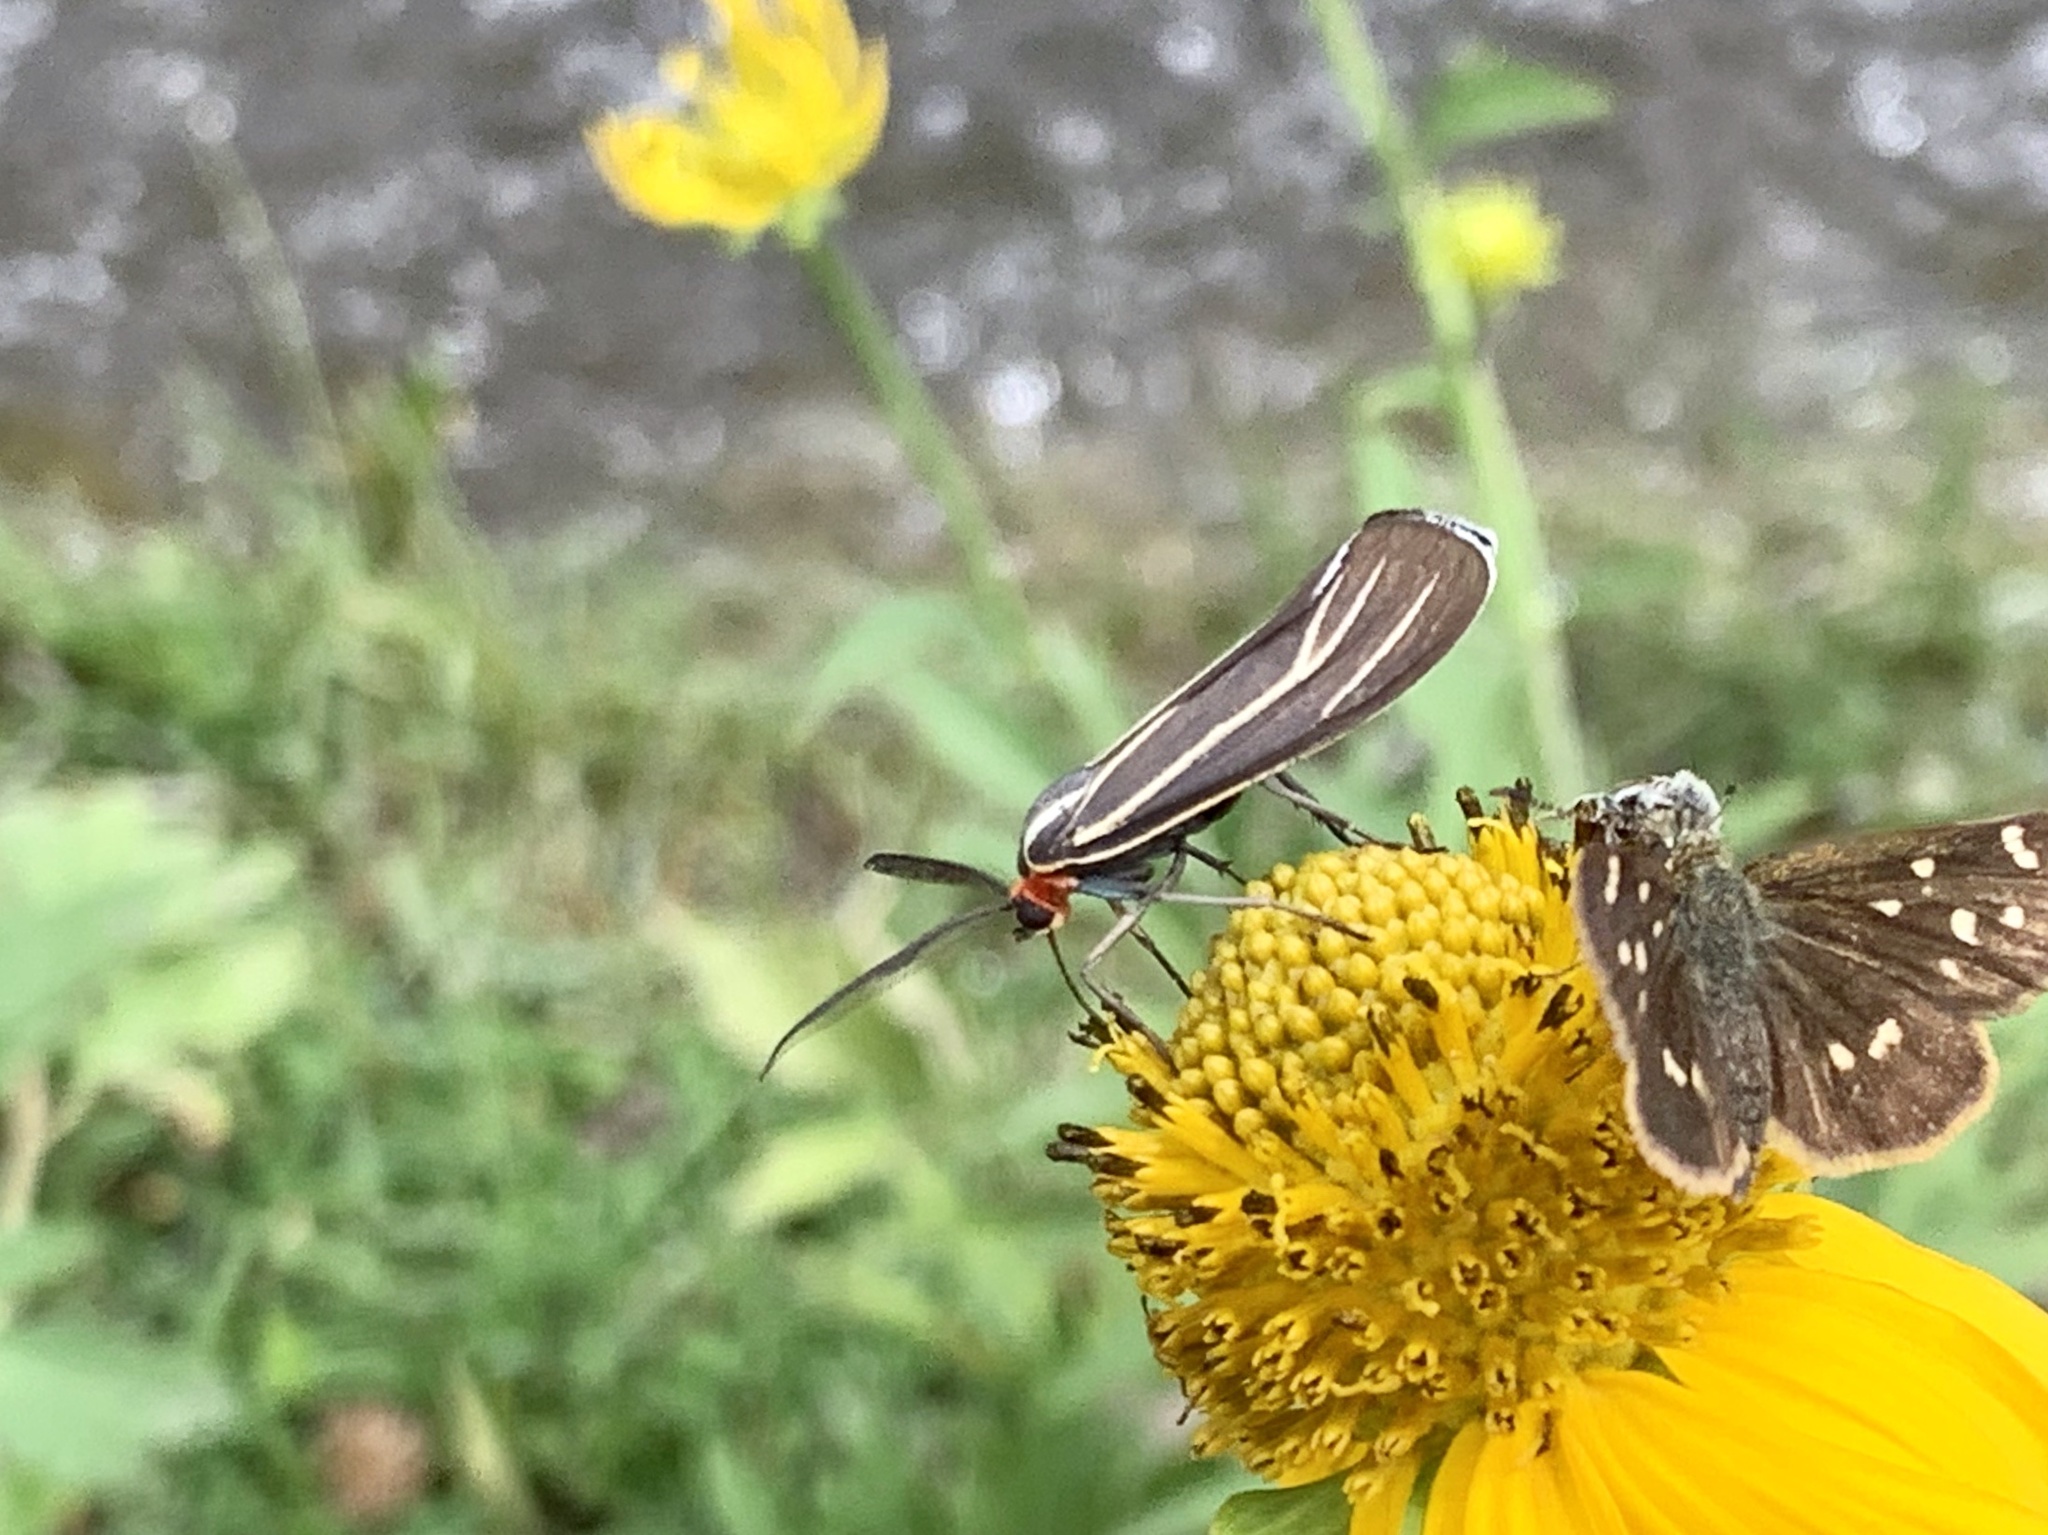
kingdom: Animalia
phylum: Arthropoda
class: Insecta
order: Lepidoptera
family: Erebidae
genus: Ctenucha
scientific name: Ctenucha venosa
